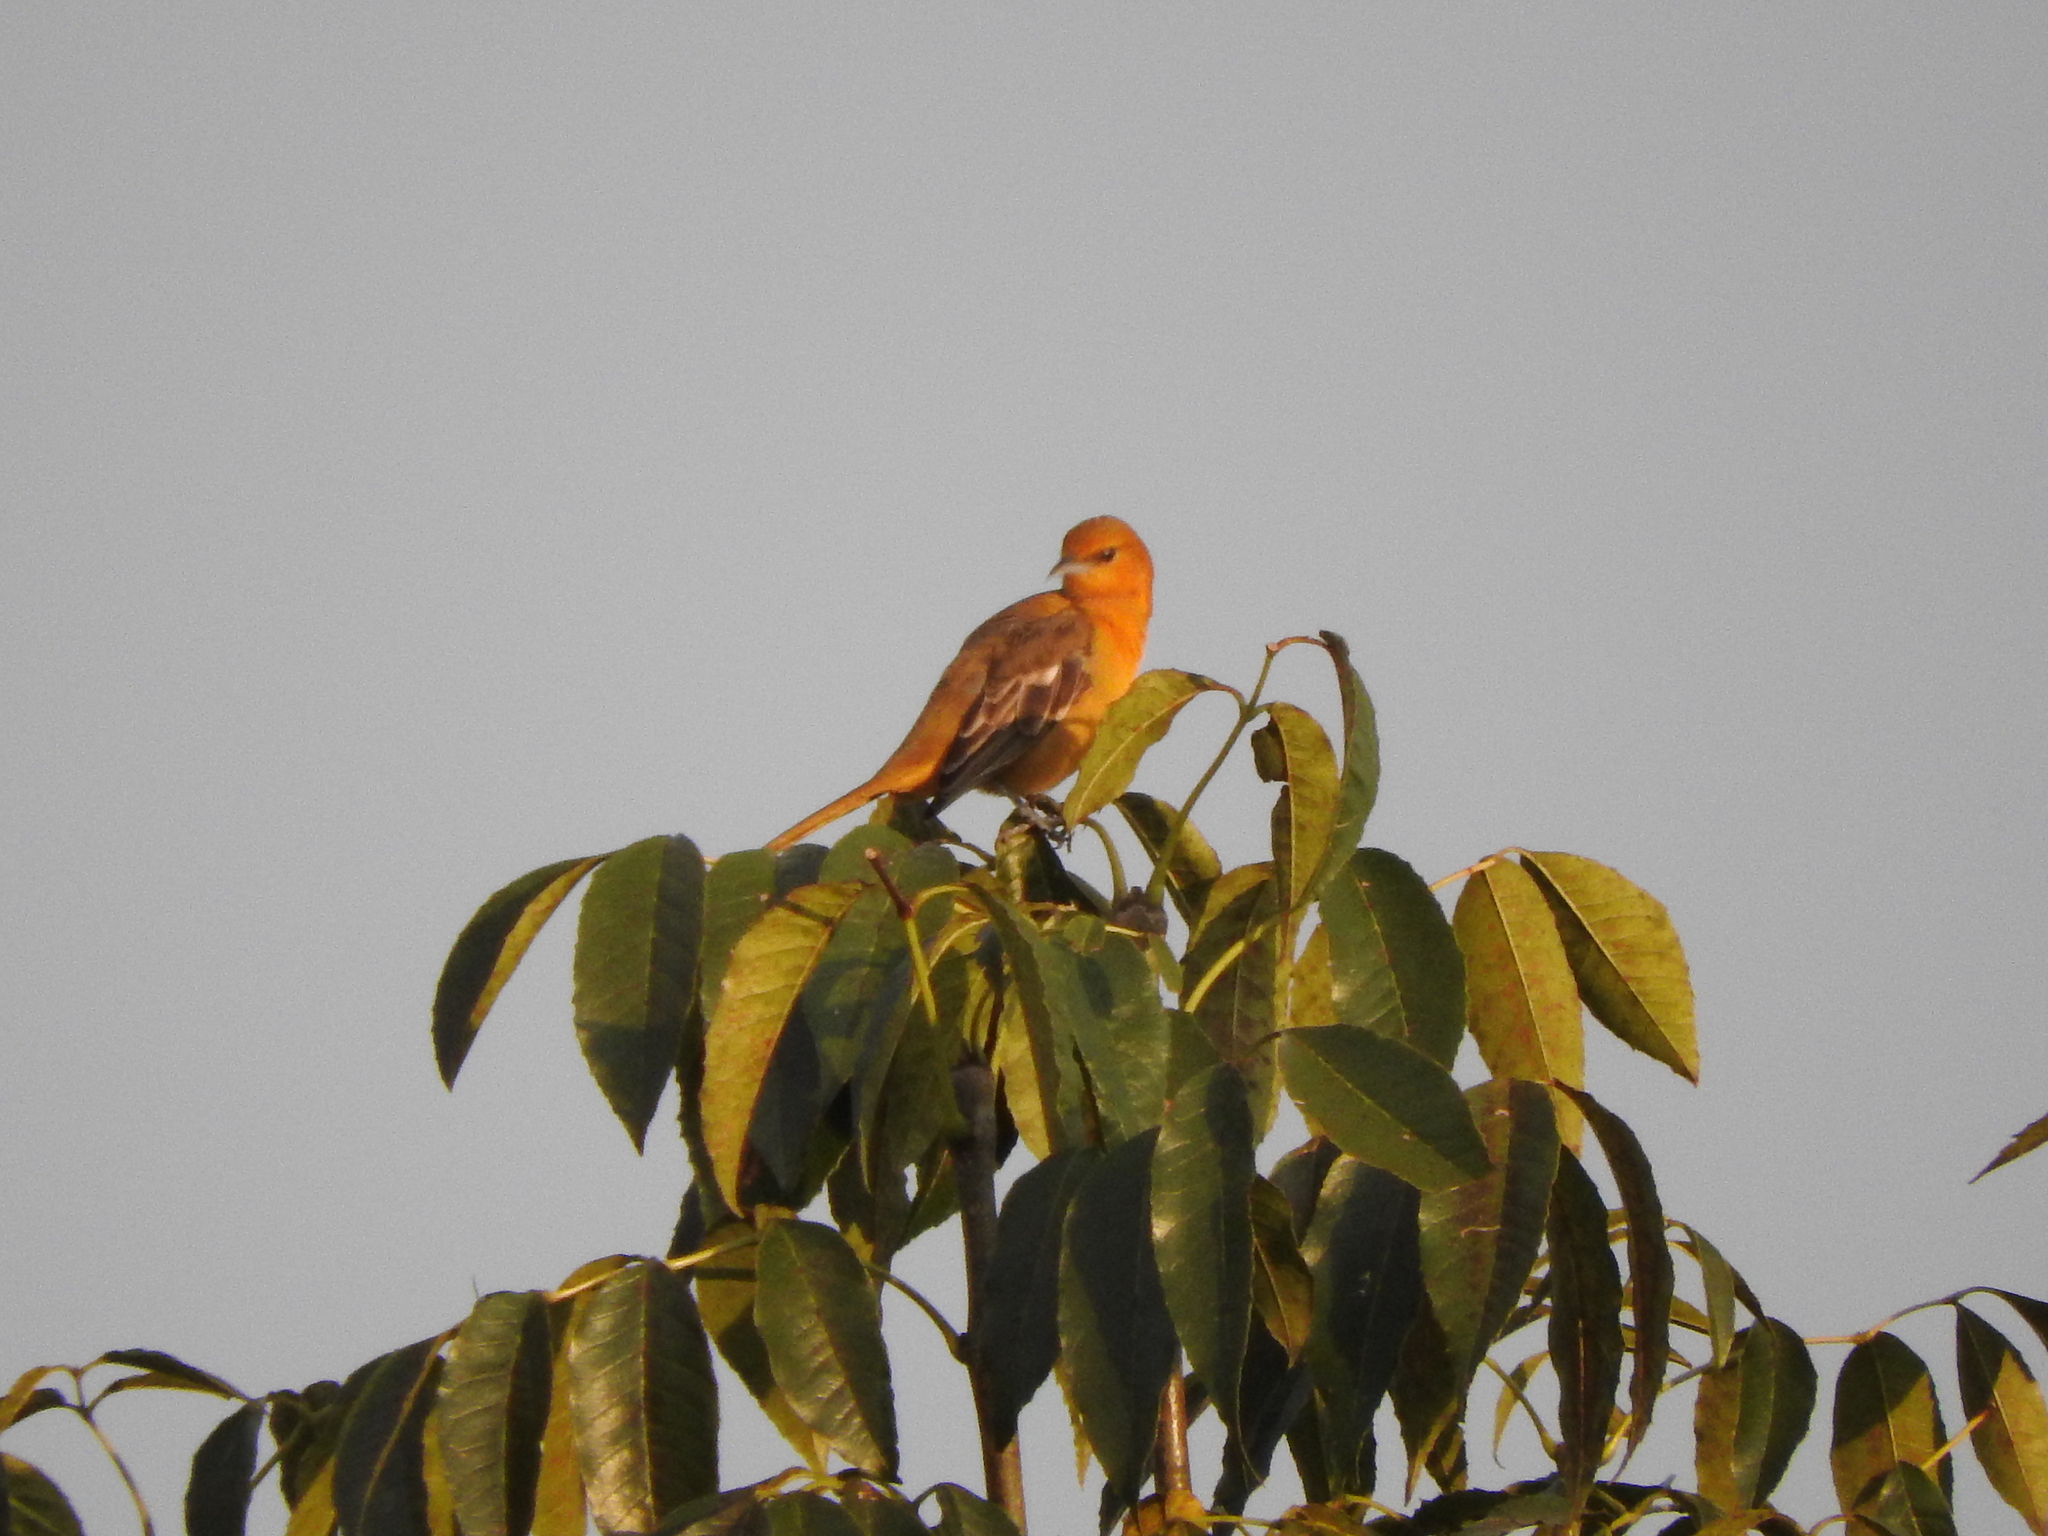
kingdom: Animalia
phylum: Chordata
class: Aves
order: Passeriformes
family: Icteridae
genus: Icterus
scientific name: Icterus
